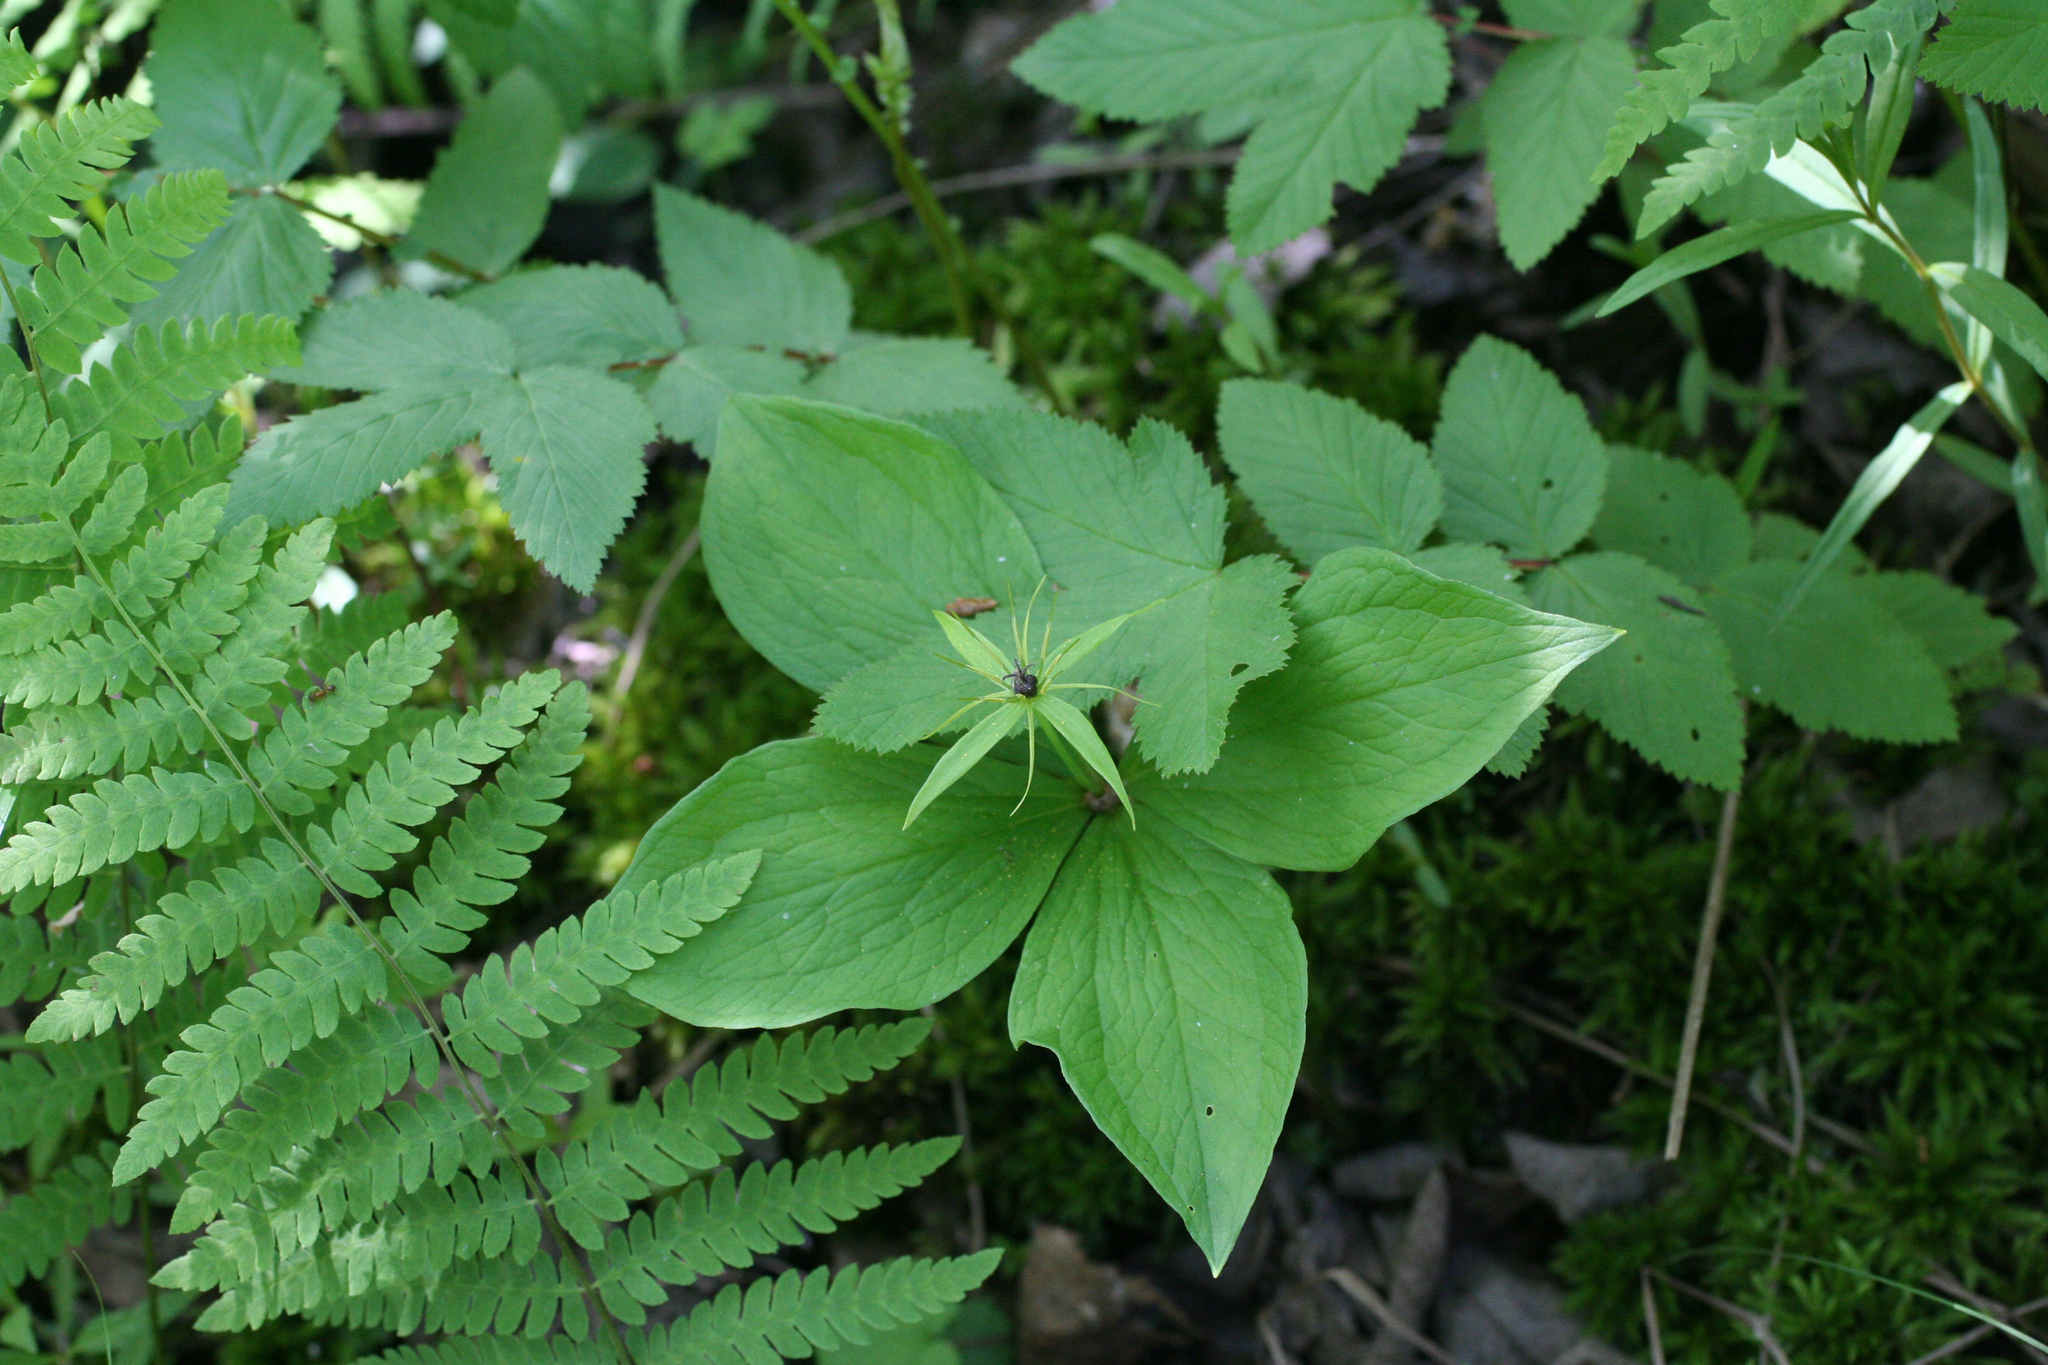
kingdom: Plantae
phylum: Tracheophyta
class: Liliopsida
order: Liliales
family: Melanthiaceae
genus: Paris
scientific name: Paris quadrifolia
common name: Herb-paris
